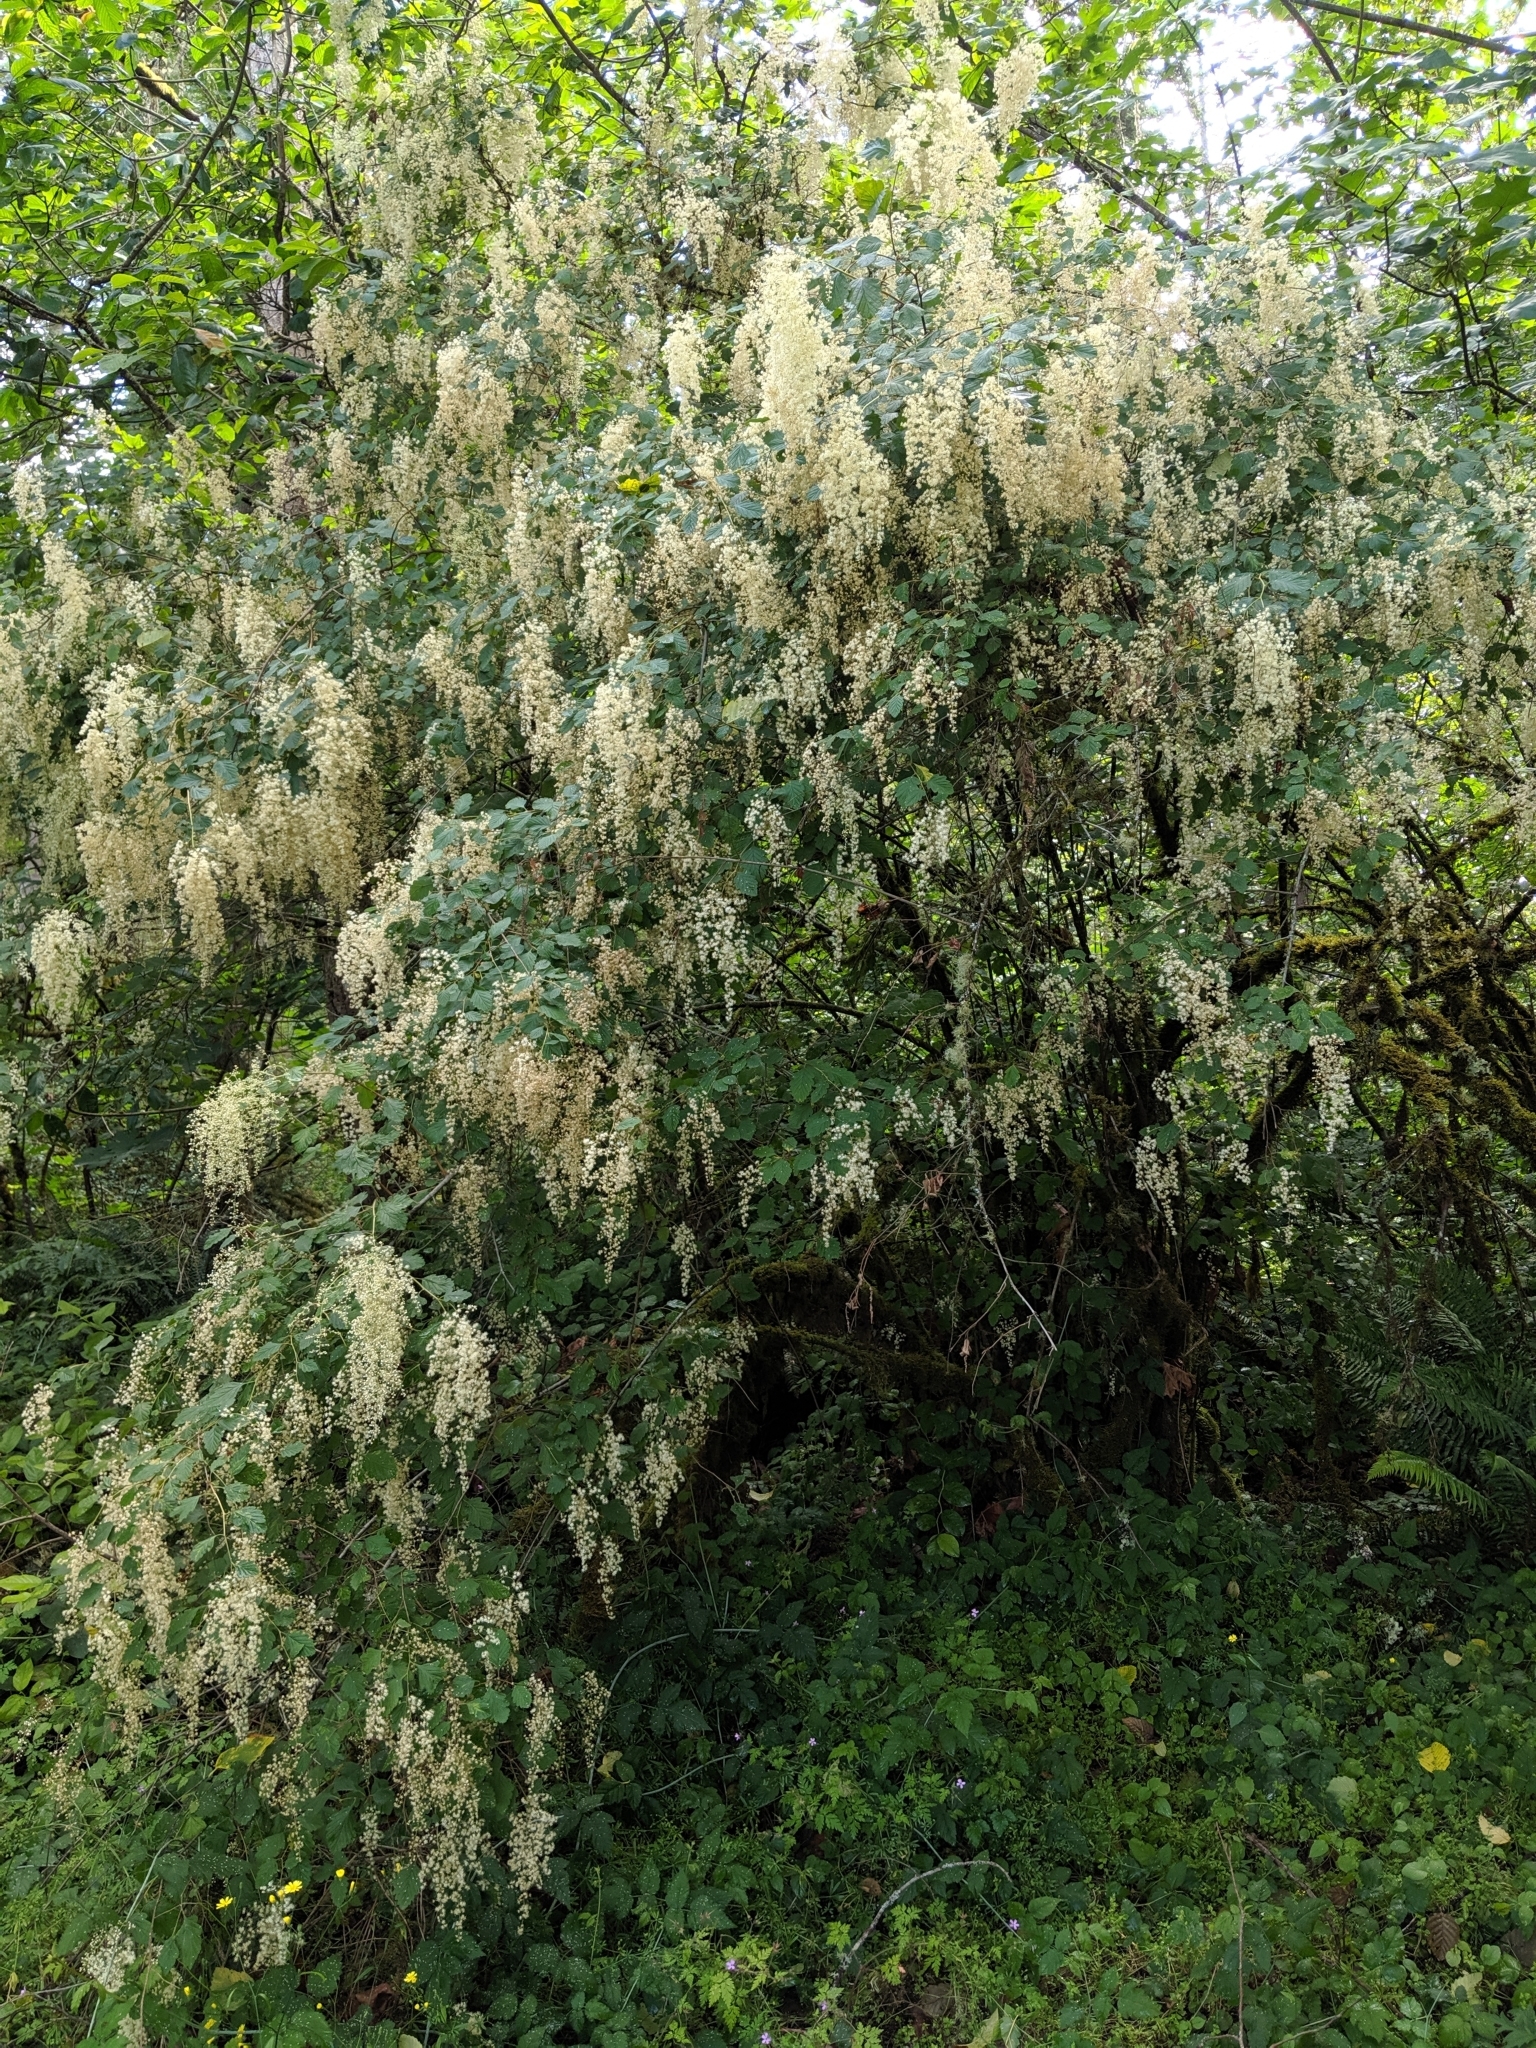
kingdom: Plantae
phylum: Tracheophyta
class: Magnoliopsida
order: Rosales
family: Rosaceae
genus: Holodiscus
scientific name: Holodiscus discolor
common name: Oceanspray
